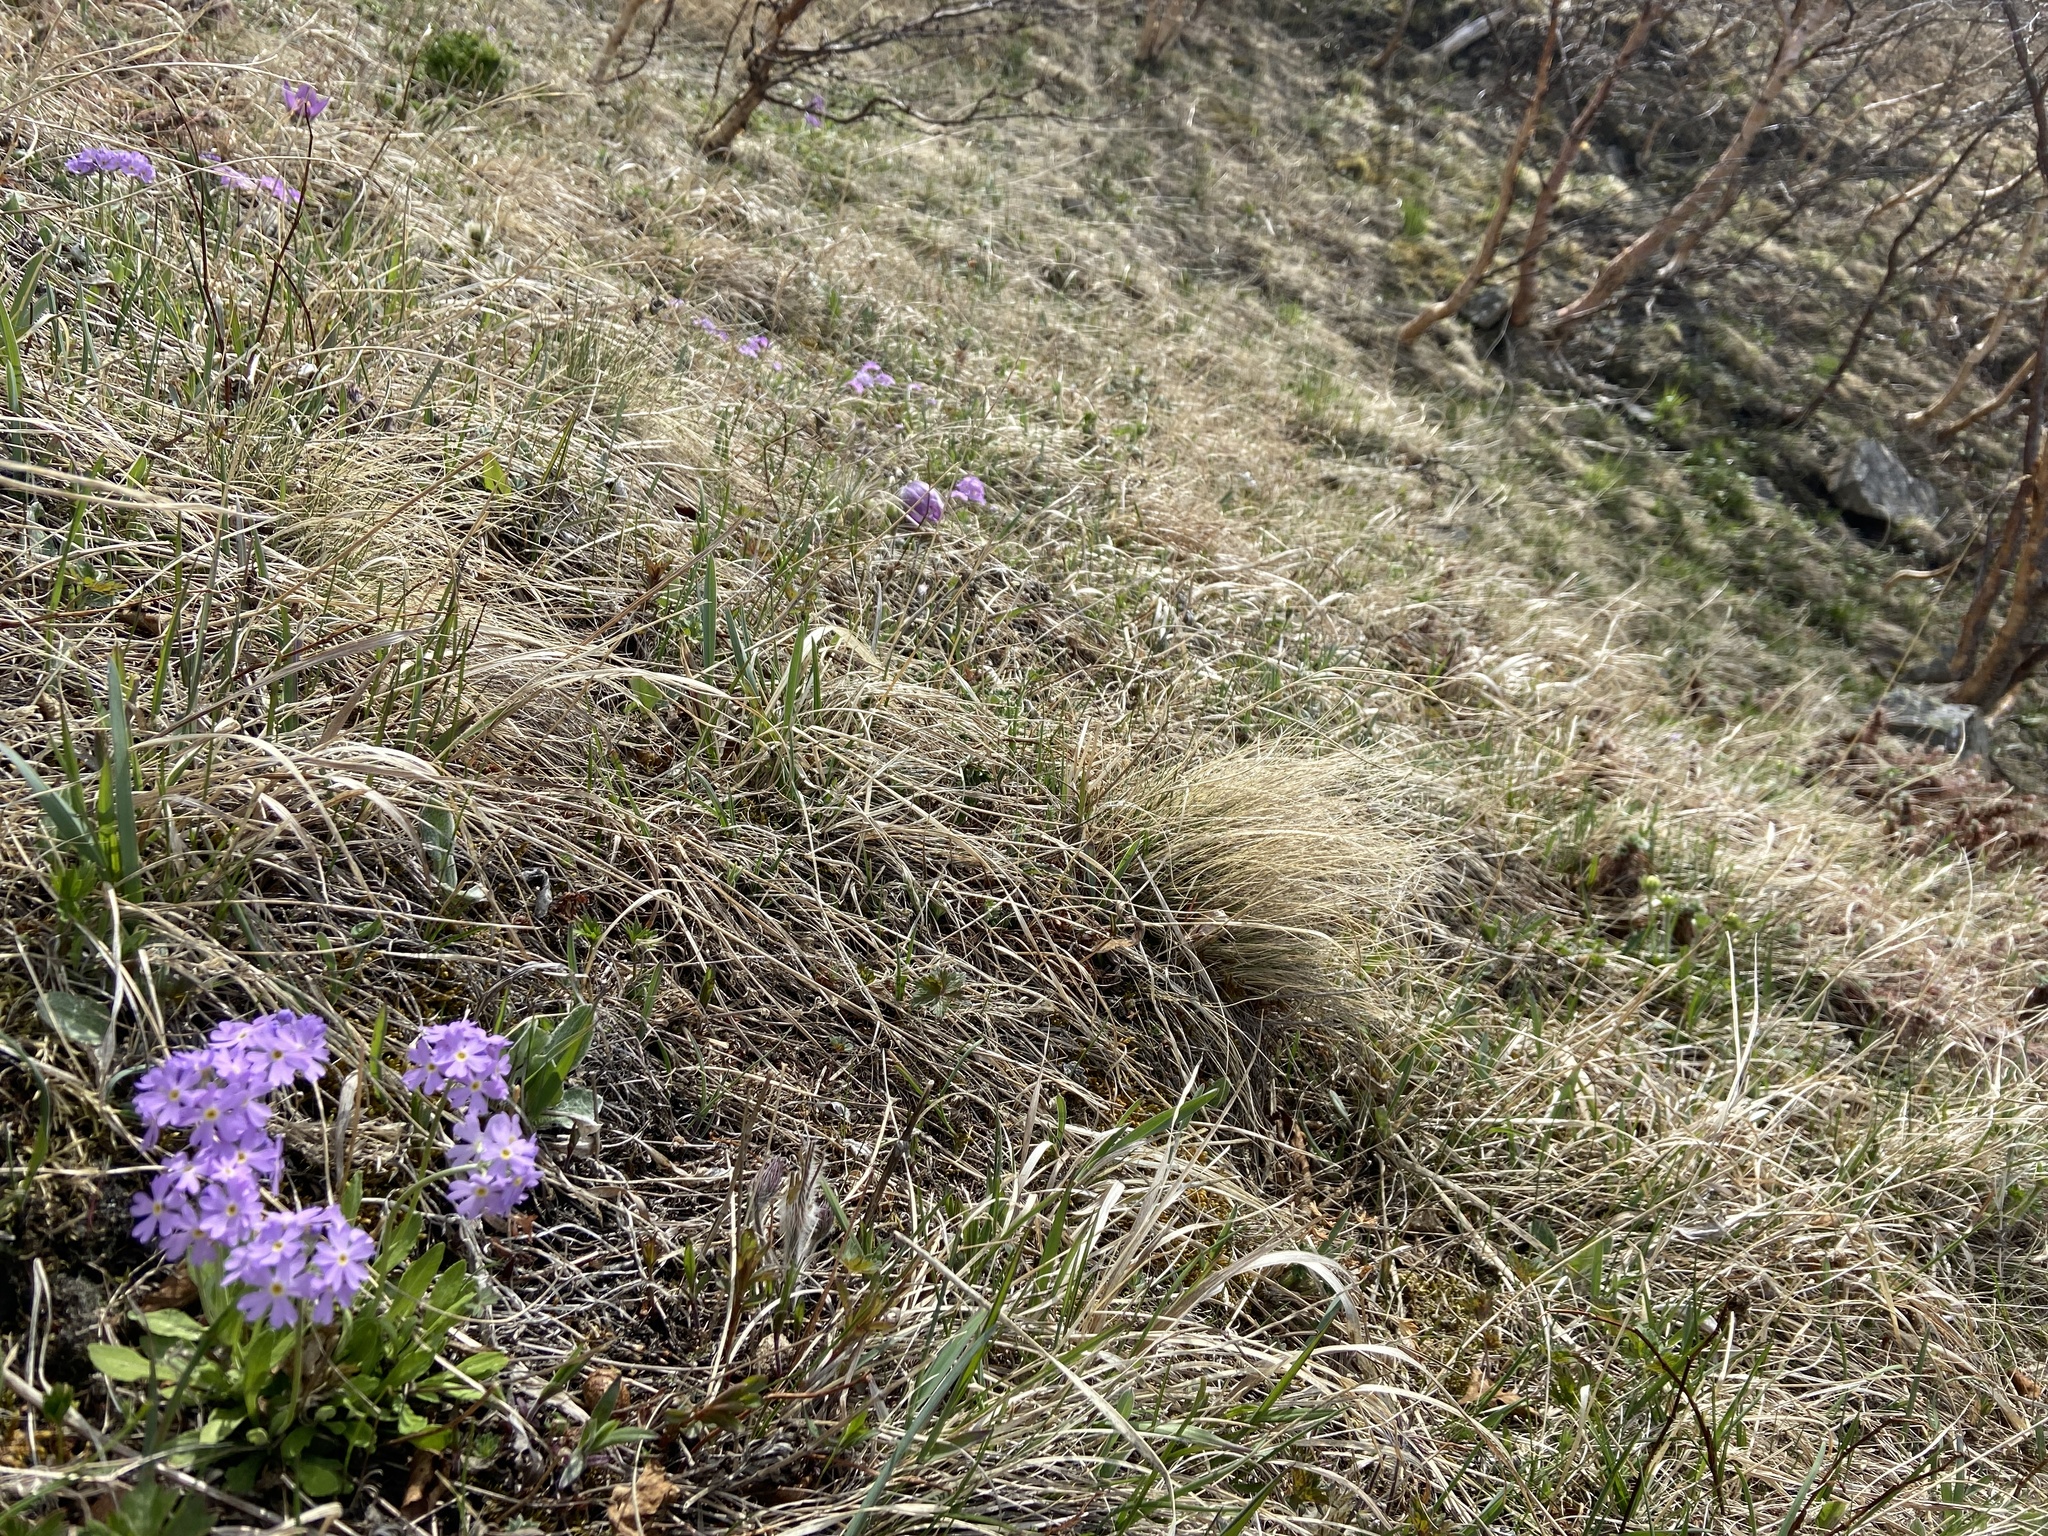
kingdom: Plantae
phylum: Tracheophyta
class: Magnoliopsida
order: Ericales
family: Primulaceae
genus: Primula
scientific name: Primula mazurenkoae
